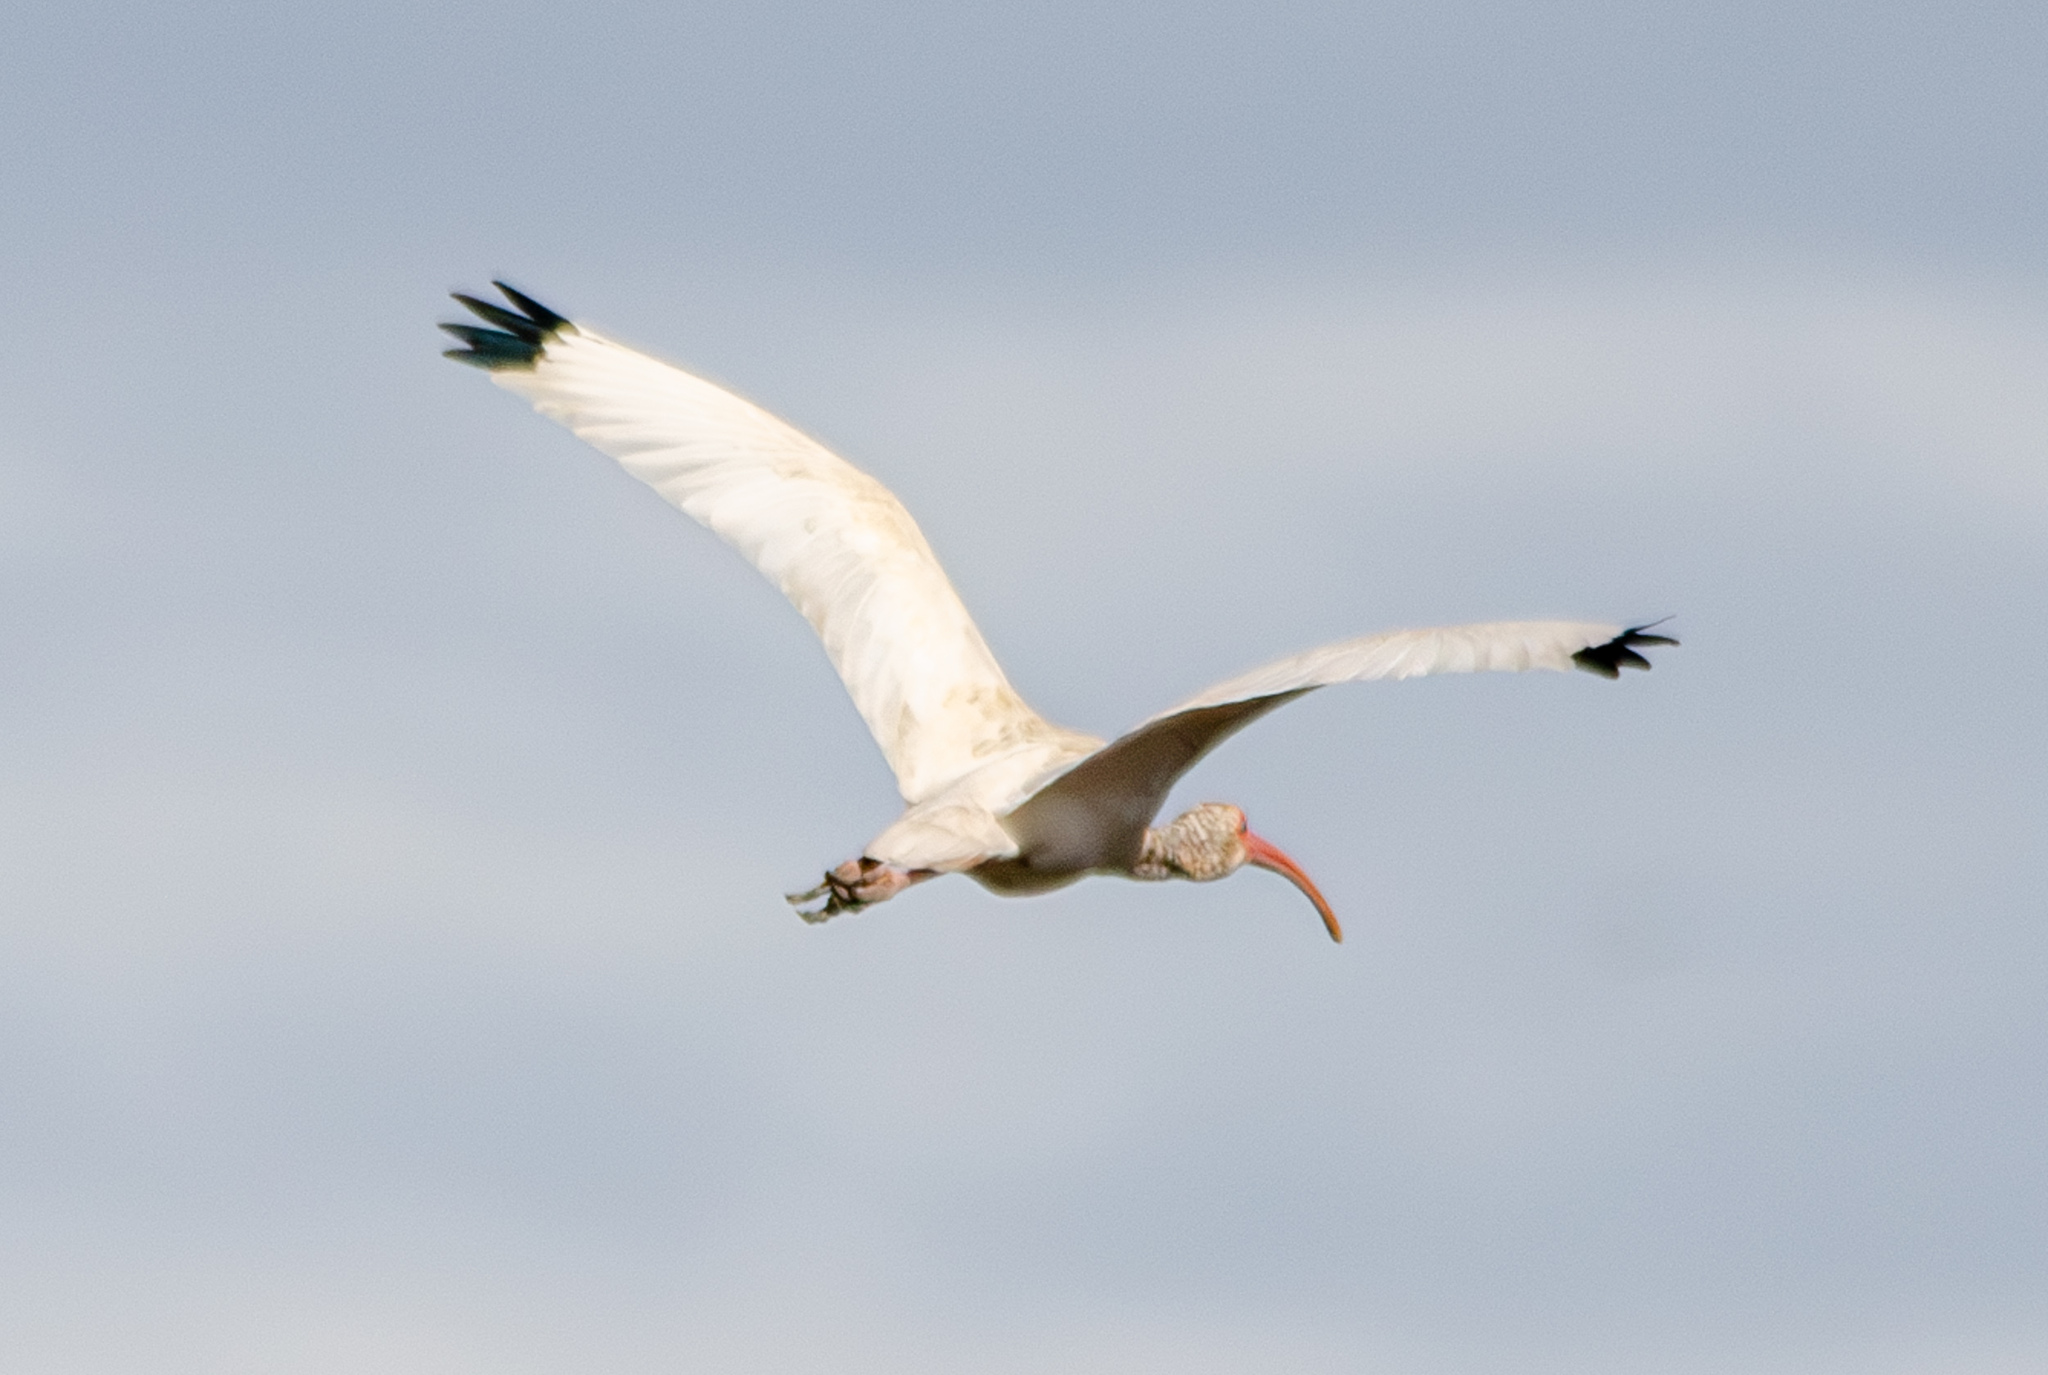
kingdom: Animalia
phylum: Chordata
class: Aves
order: Pelecaniformes
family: Threskiornithidae
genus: Eudocimus
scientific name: Eudocimus albus
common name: White ibis
